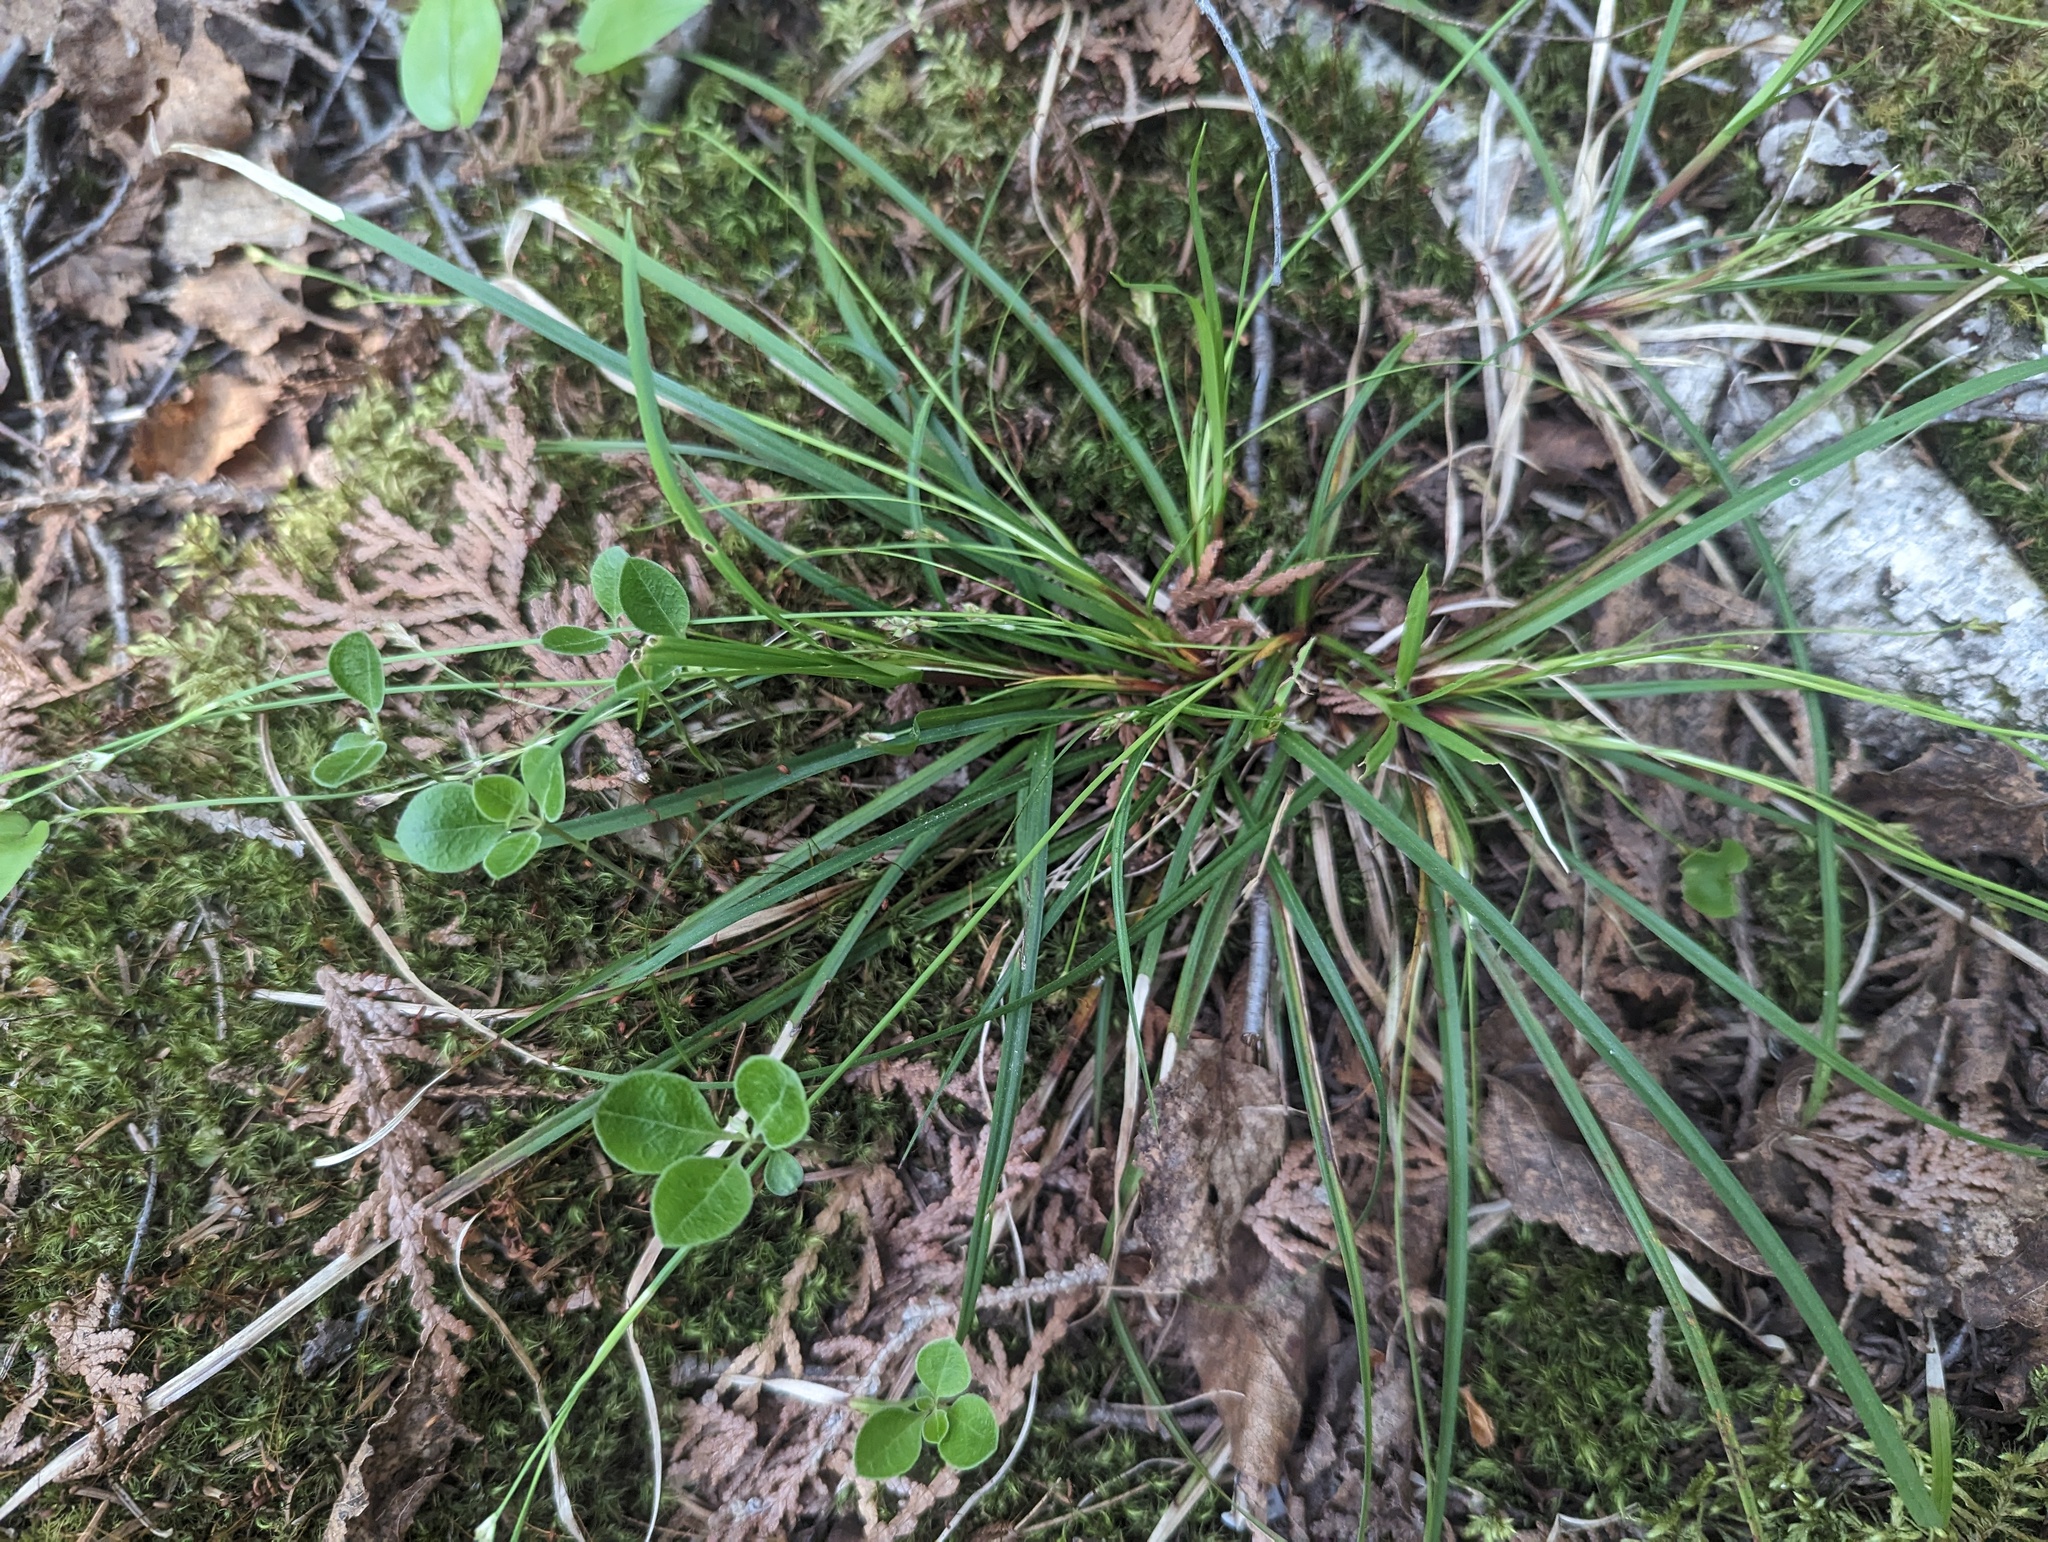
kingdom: Plantae
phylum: Tracheophyta
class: Liliopsida
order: Poales
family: Cyperaceae
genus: Carex
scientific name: Carex pedunculata
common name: Pedunculate sedge
